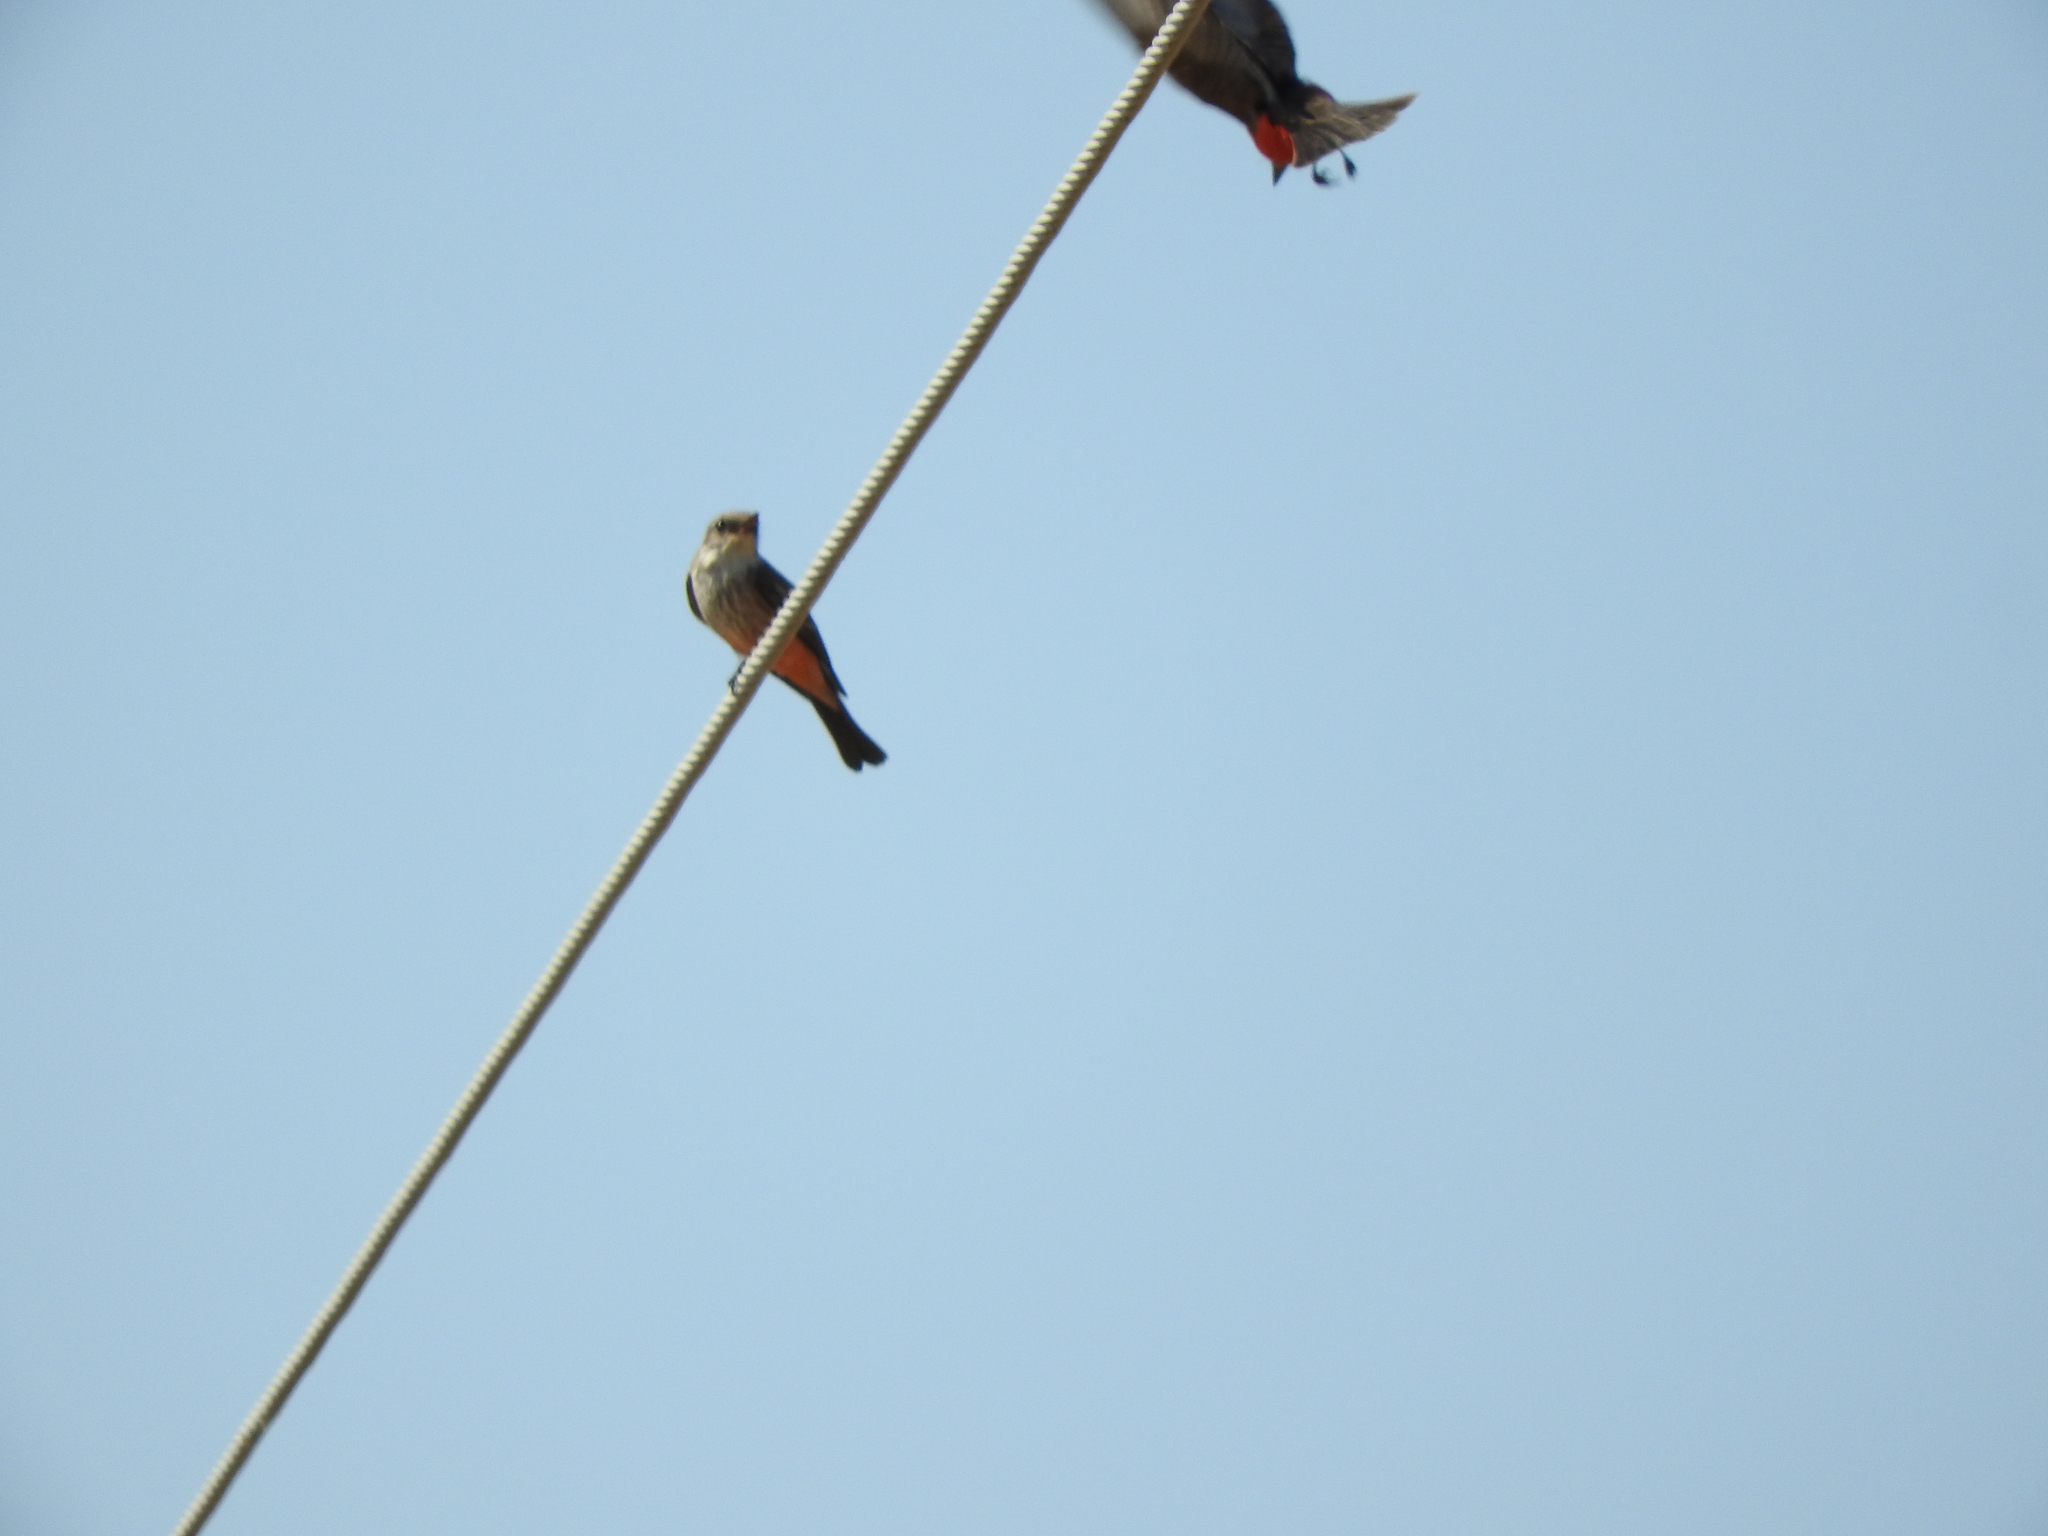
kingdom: Animalia
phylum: Chordata
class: Aves
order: Passeriformes
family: Tyrannidae
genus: Pyrocephalus
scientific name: Pyrocephalus rubinus
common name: Vermilion flycatcher
